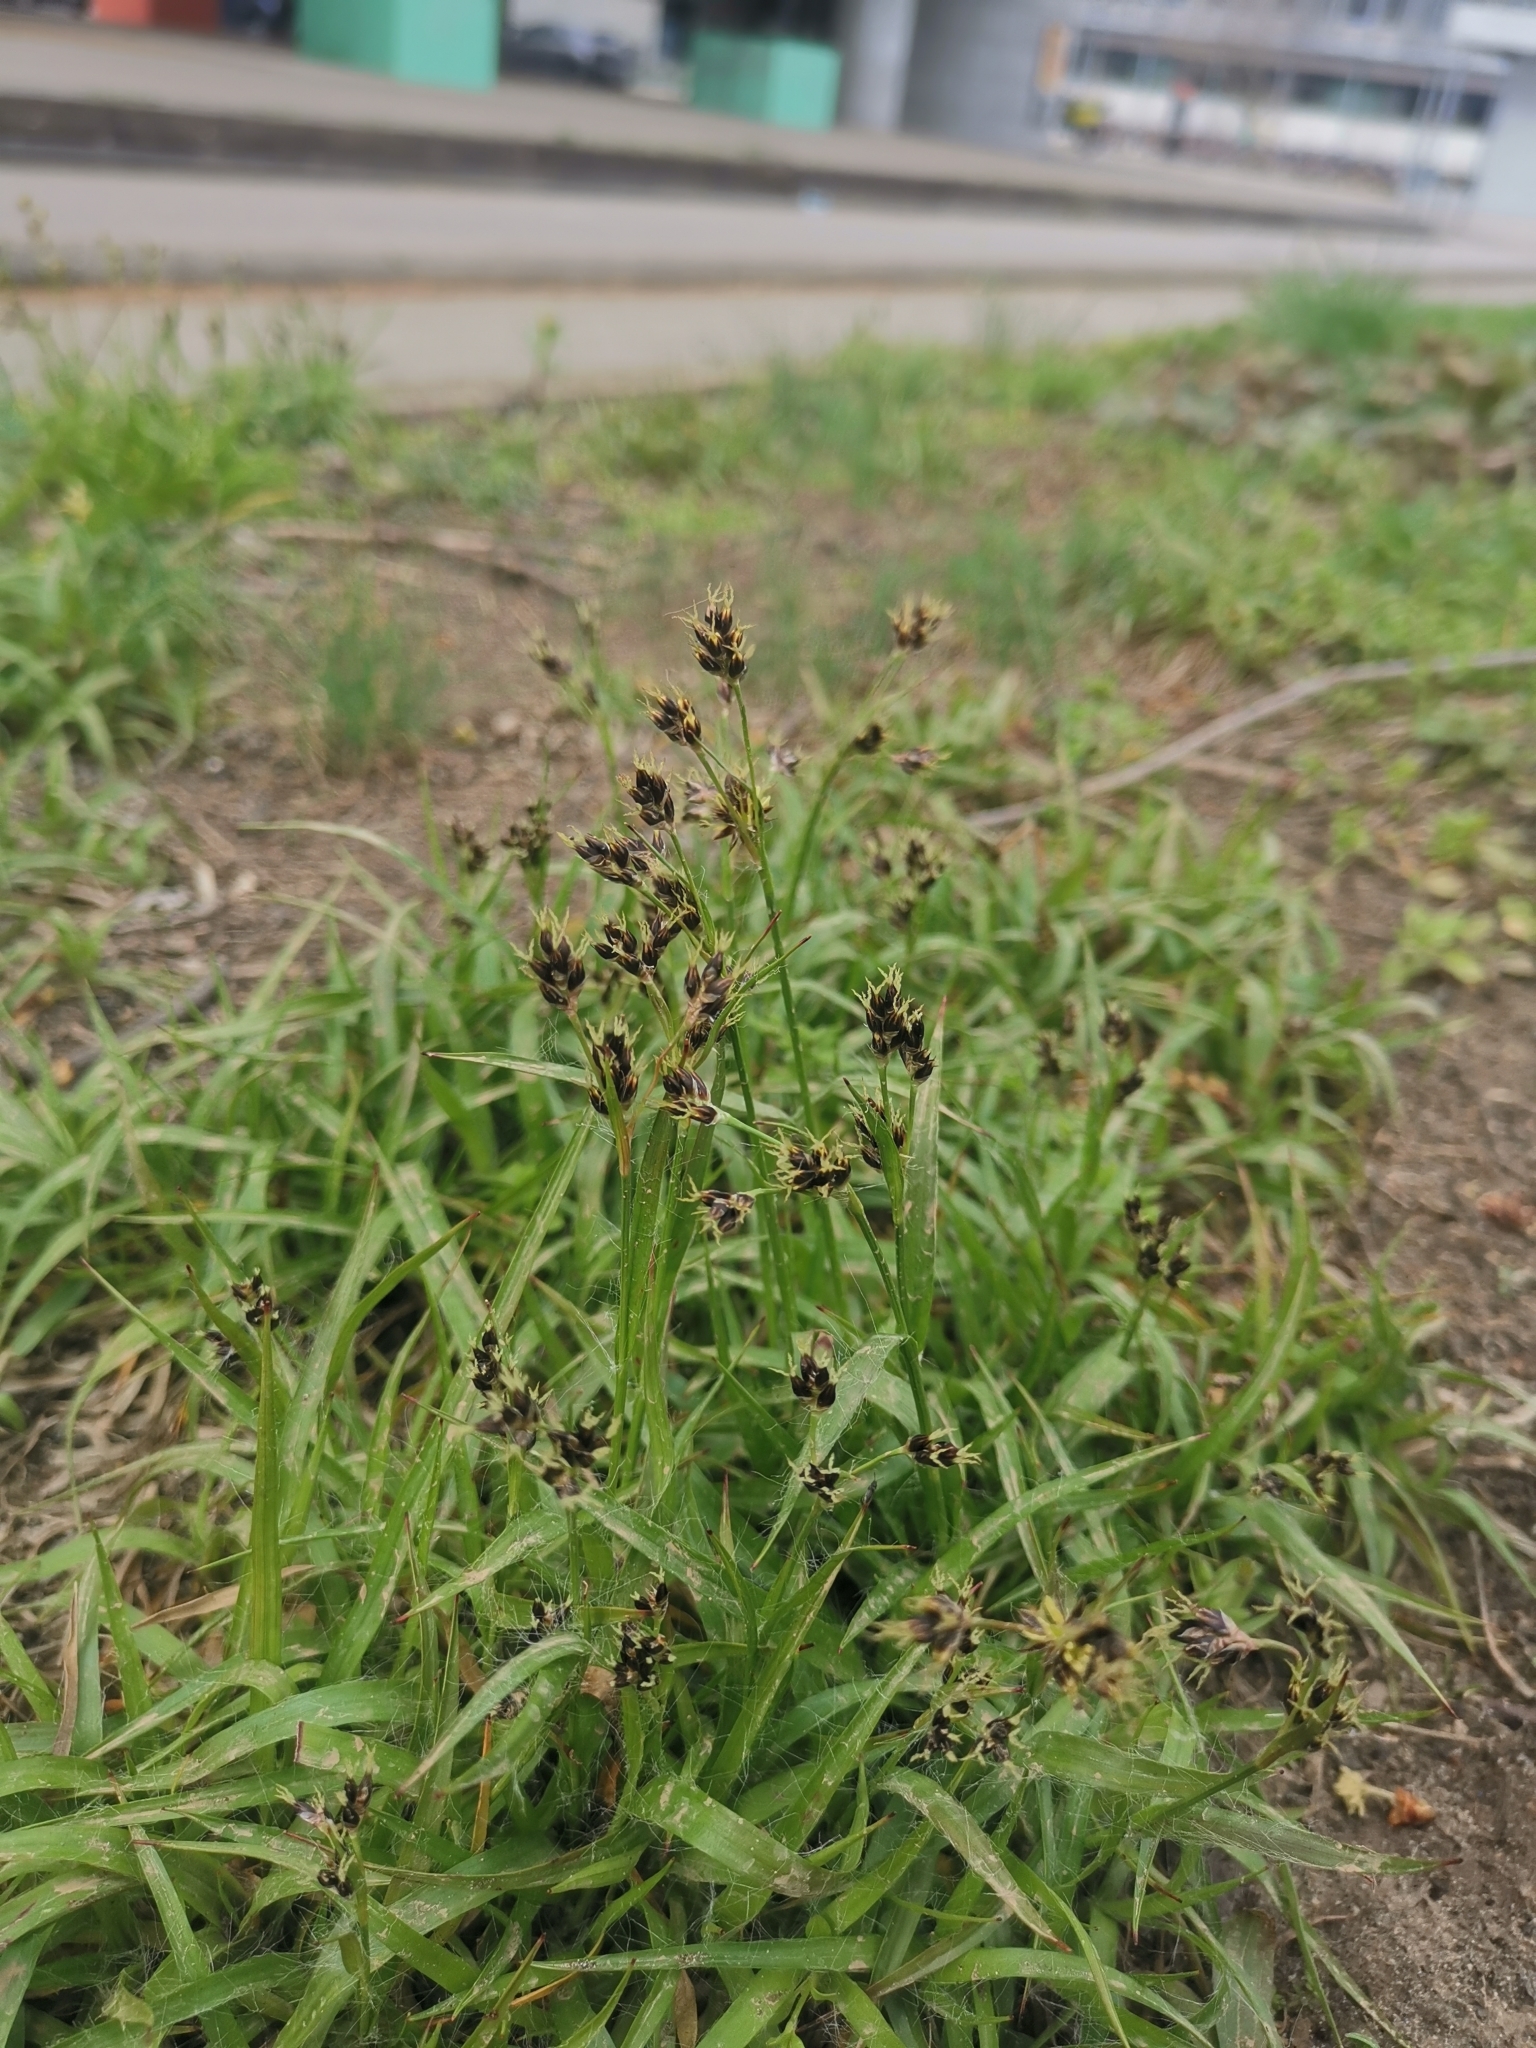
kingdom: Plantae
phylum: Tracheophyta
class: Liliopsida
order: Poales
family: Juncaceae
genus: Luzula
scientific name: Luzula campestris
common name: Field wood-rush
